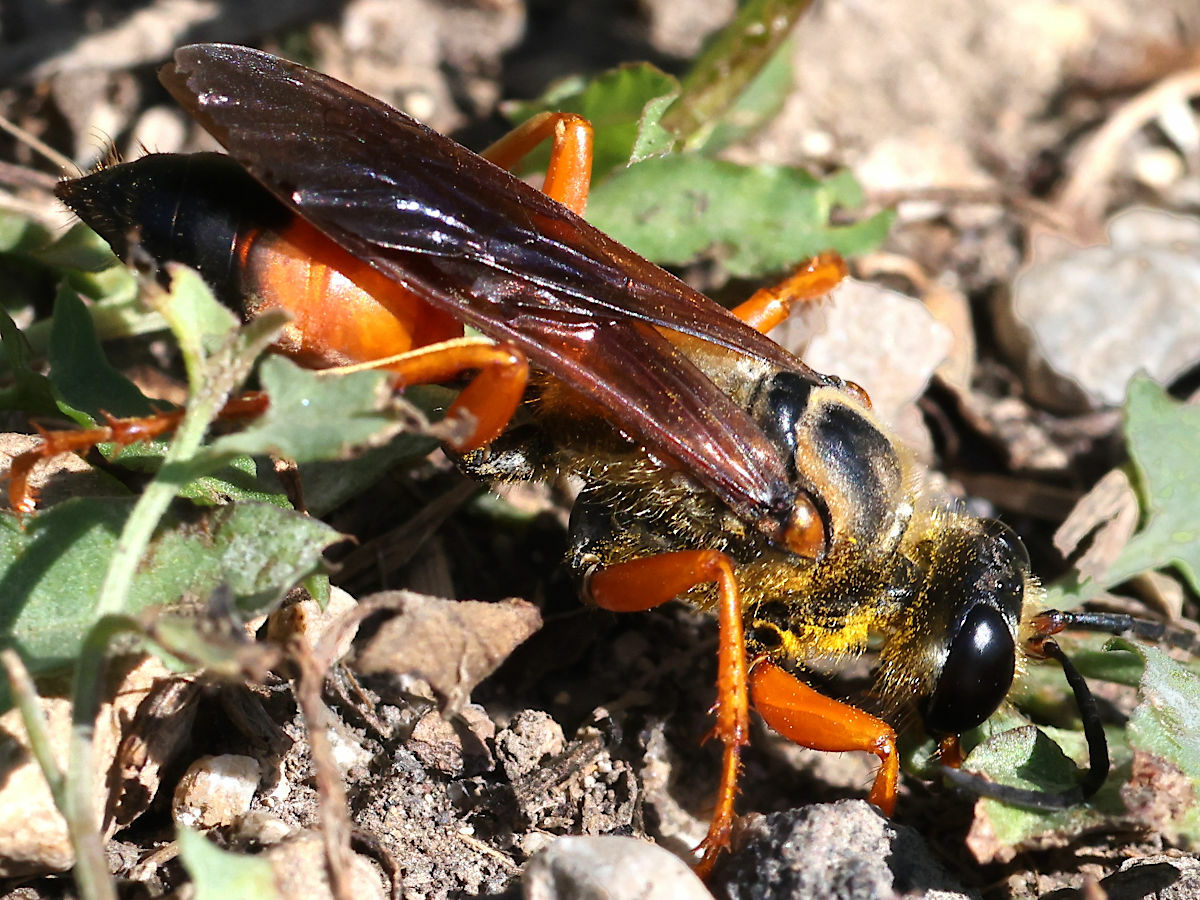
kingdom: Animalia
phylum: Arthropoda
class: Insecta
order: Hymenoptera
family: Sphecidae
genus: Sphex
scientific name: Sphex ichneumoneus
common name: Great golden digger wasp
